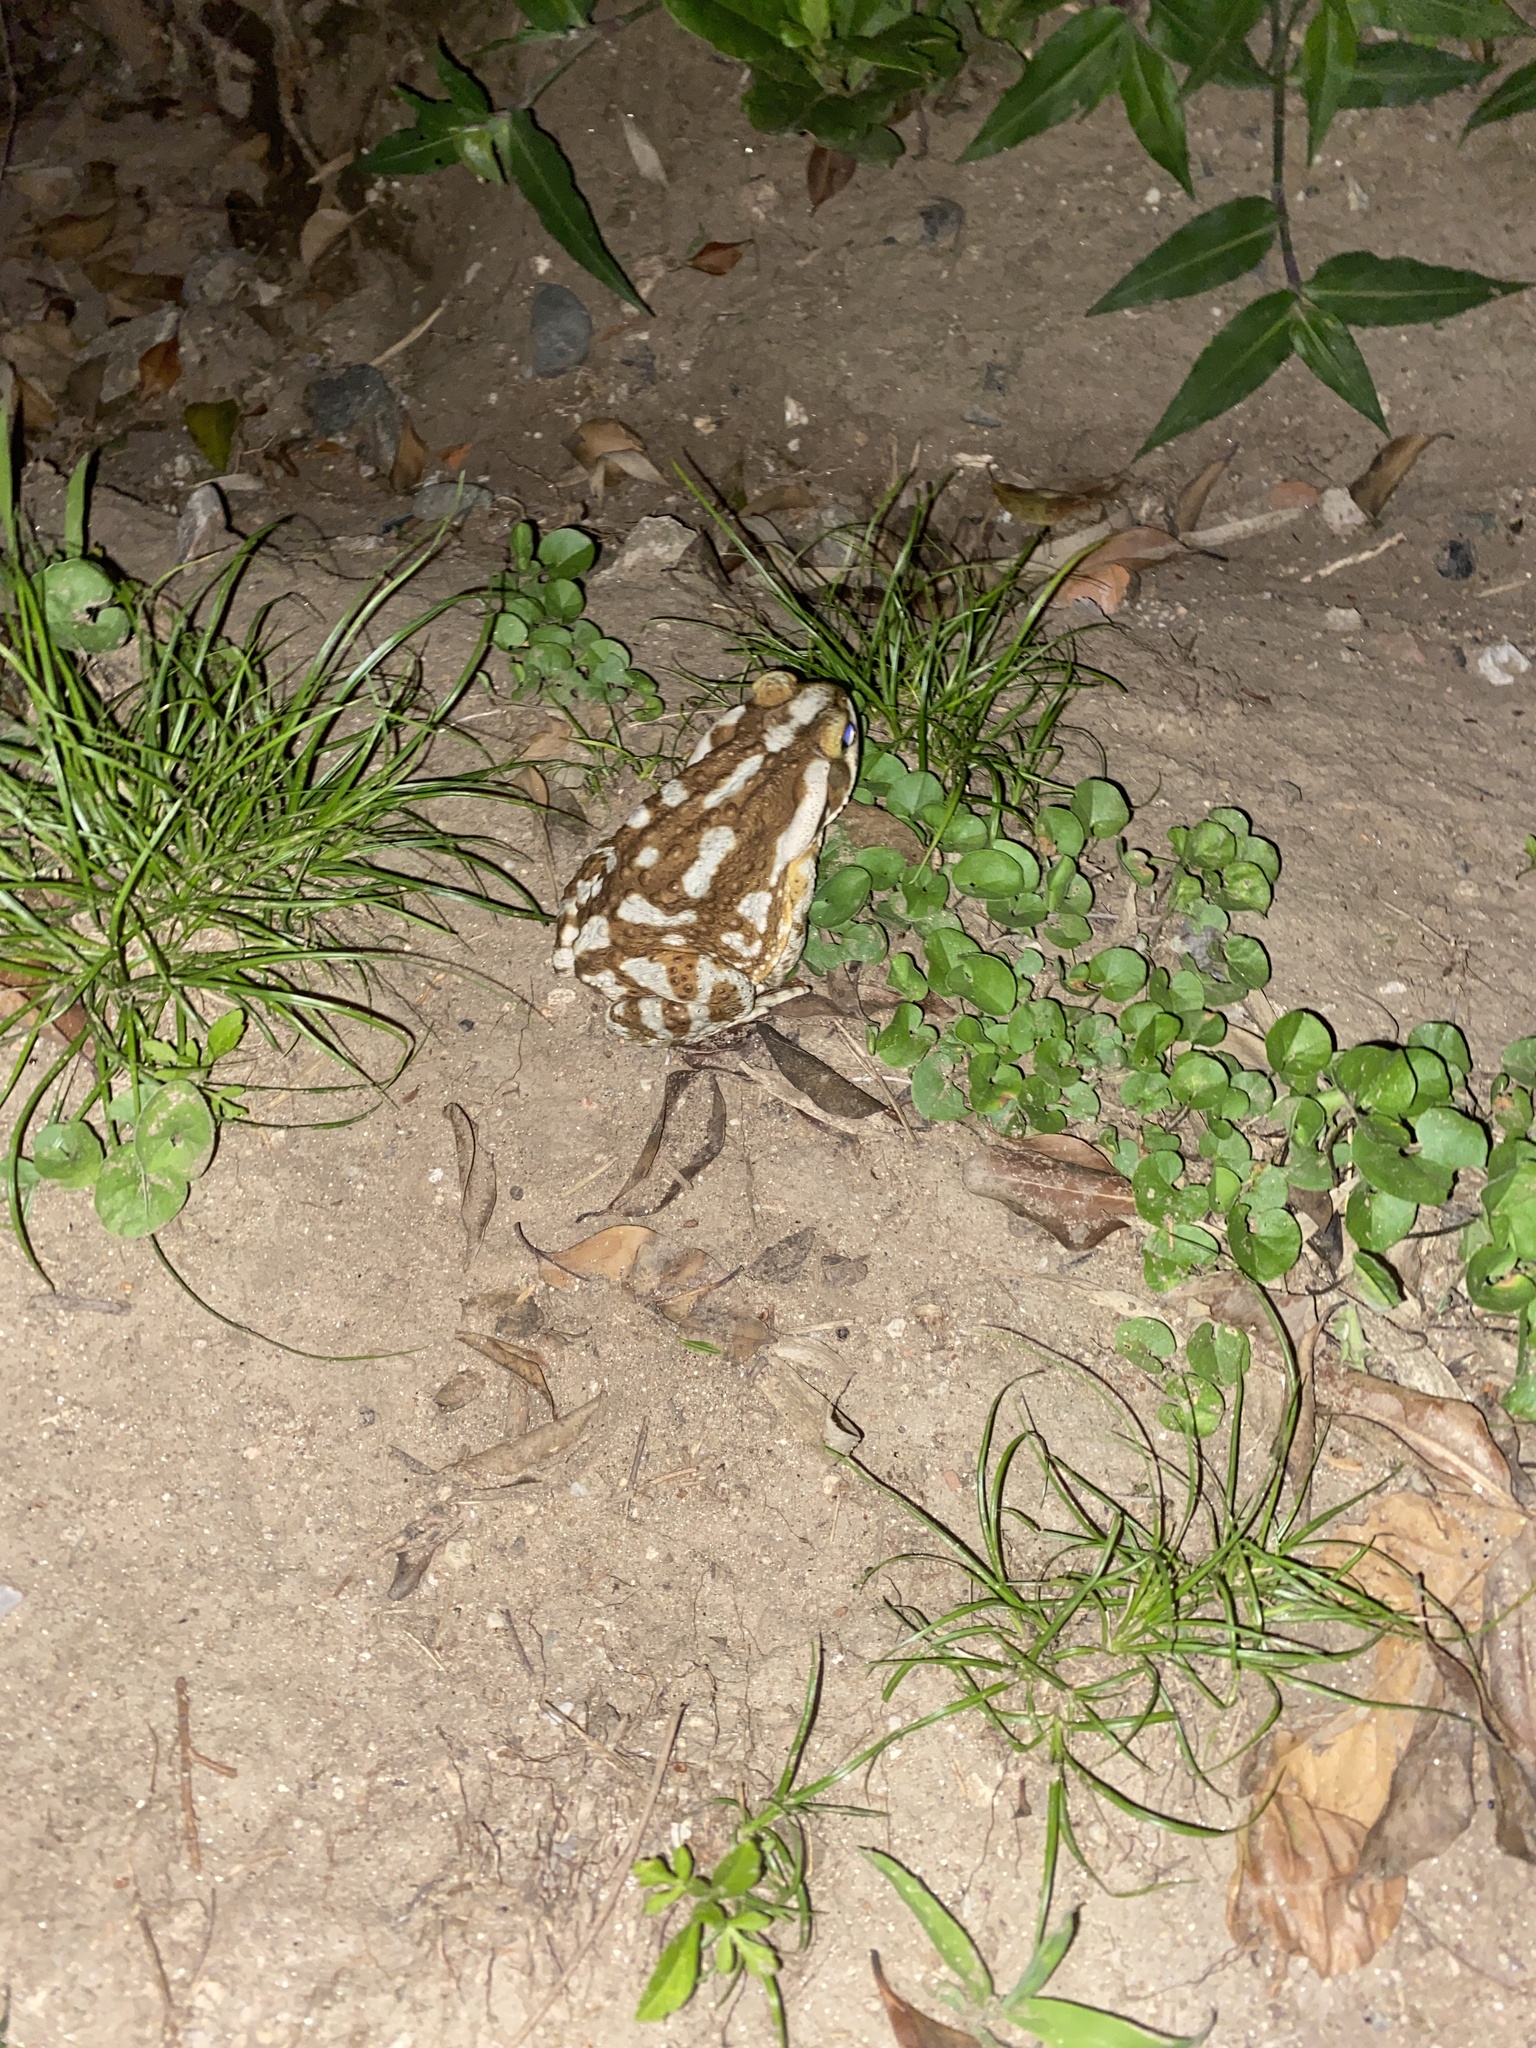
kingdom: Animalia
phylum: Chordata
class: Amphibia
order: Anura
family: Bufonidae
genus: Rhinella
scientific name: Rhinella arenarum
